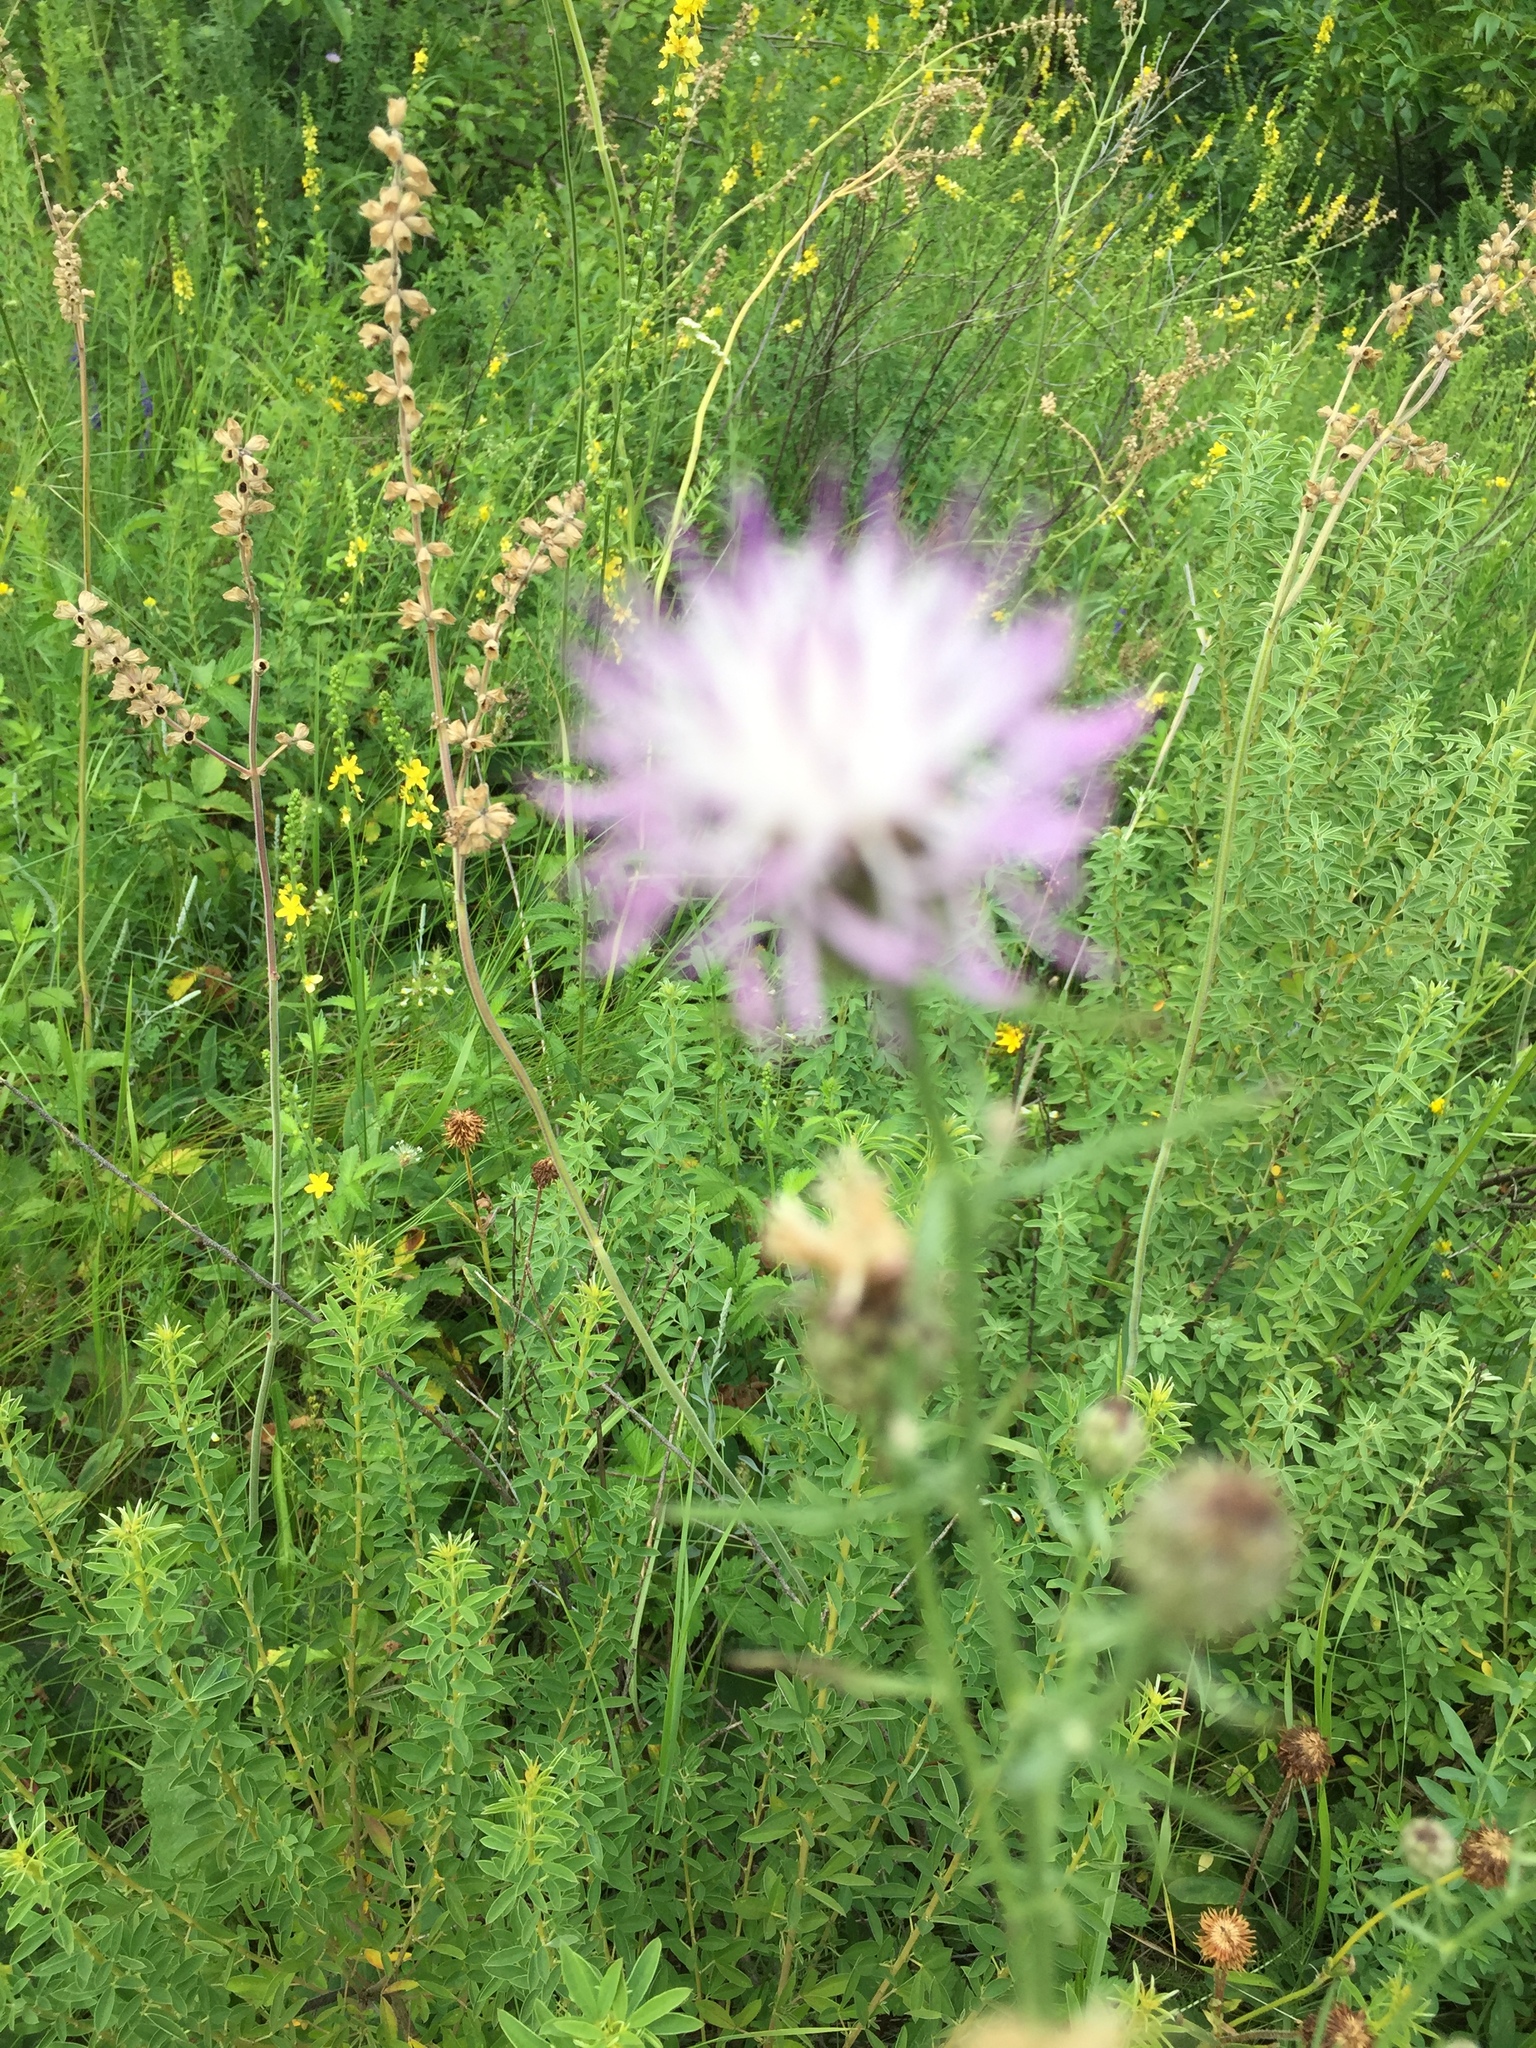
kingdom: Plantae
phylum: Tracheophyta
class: Magnoliopsida
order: Asterales
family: Asteraceae
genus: Centaurea
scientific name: Centaurea stoebe
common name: Spotted knapweed
